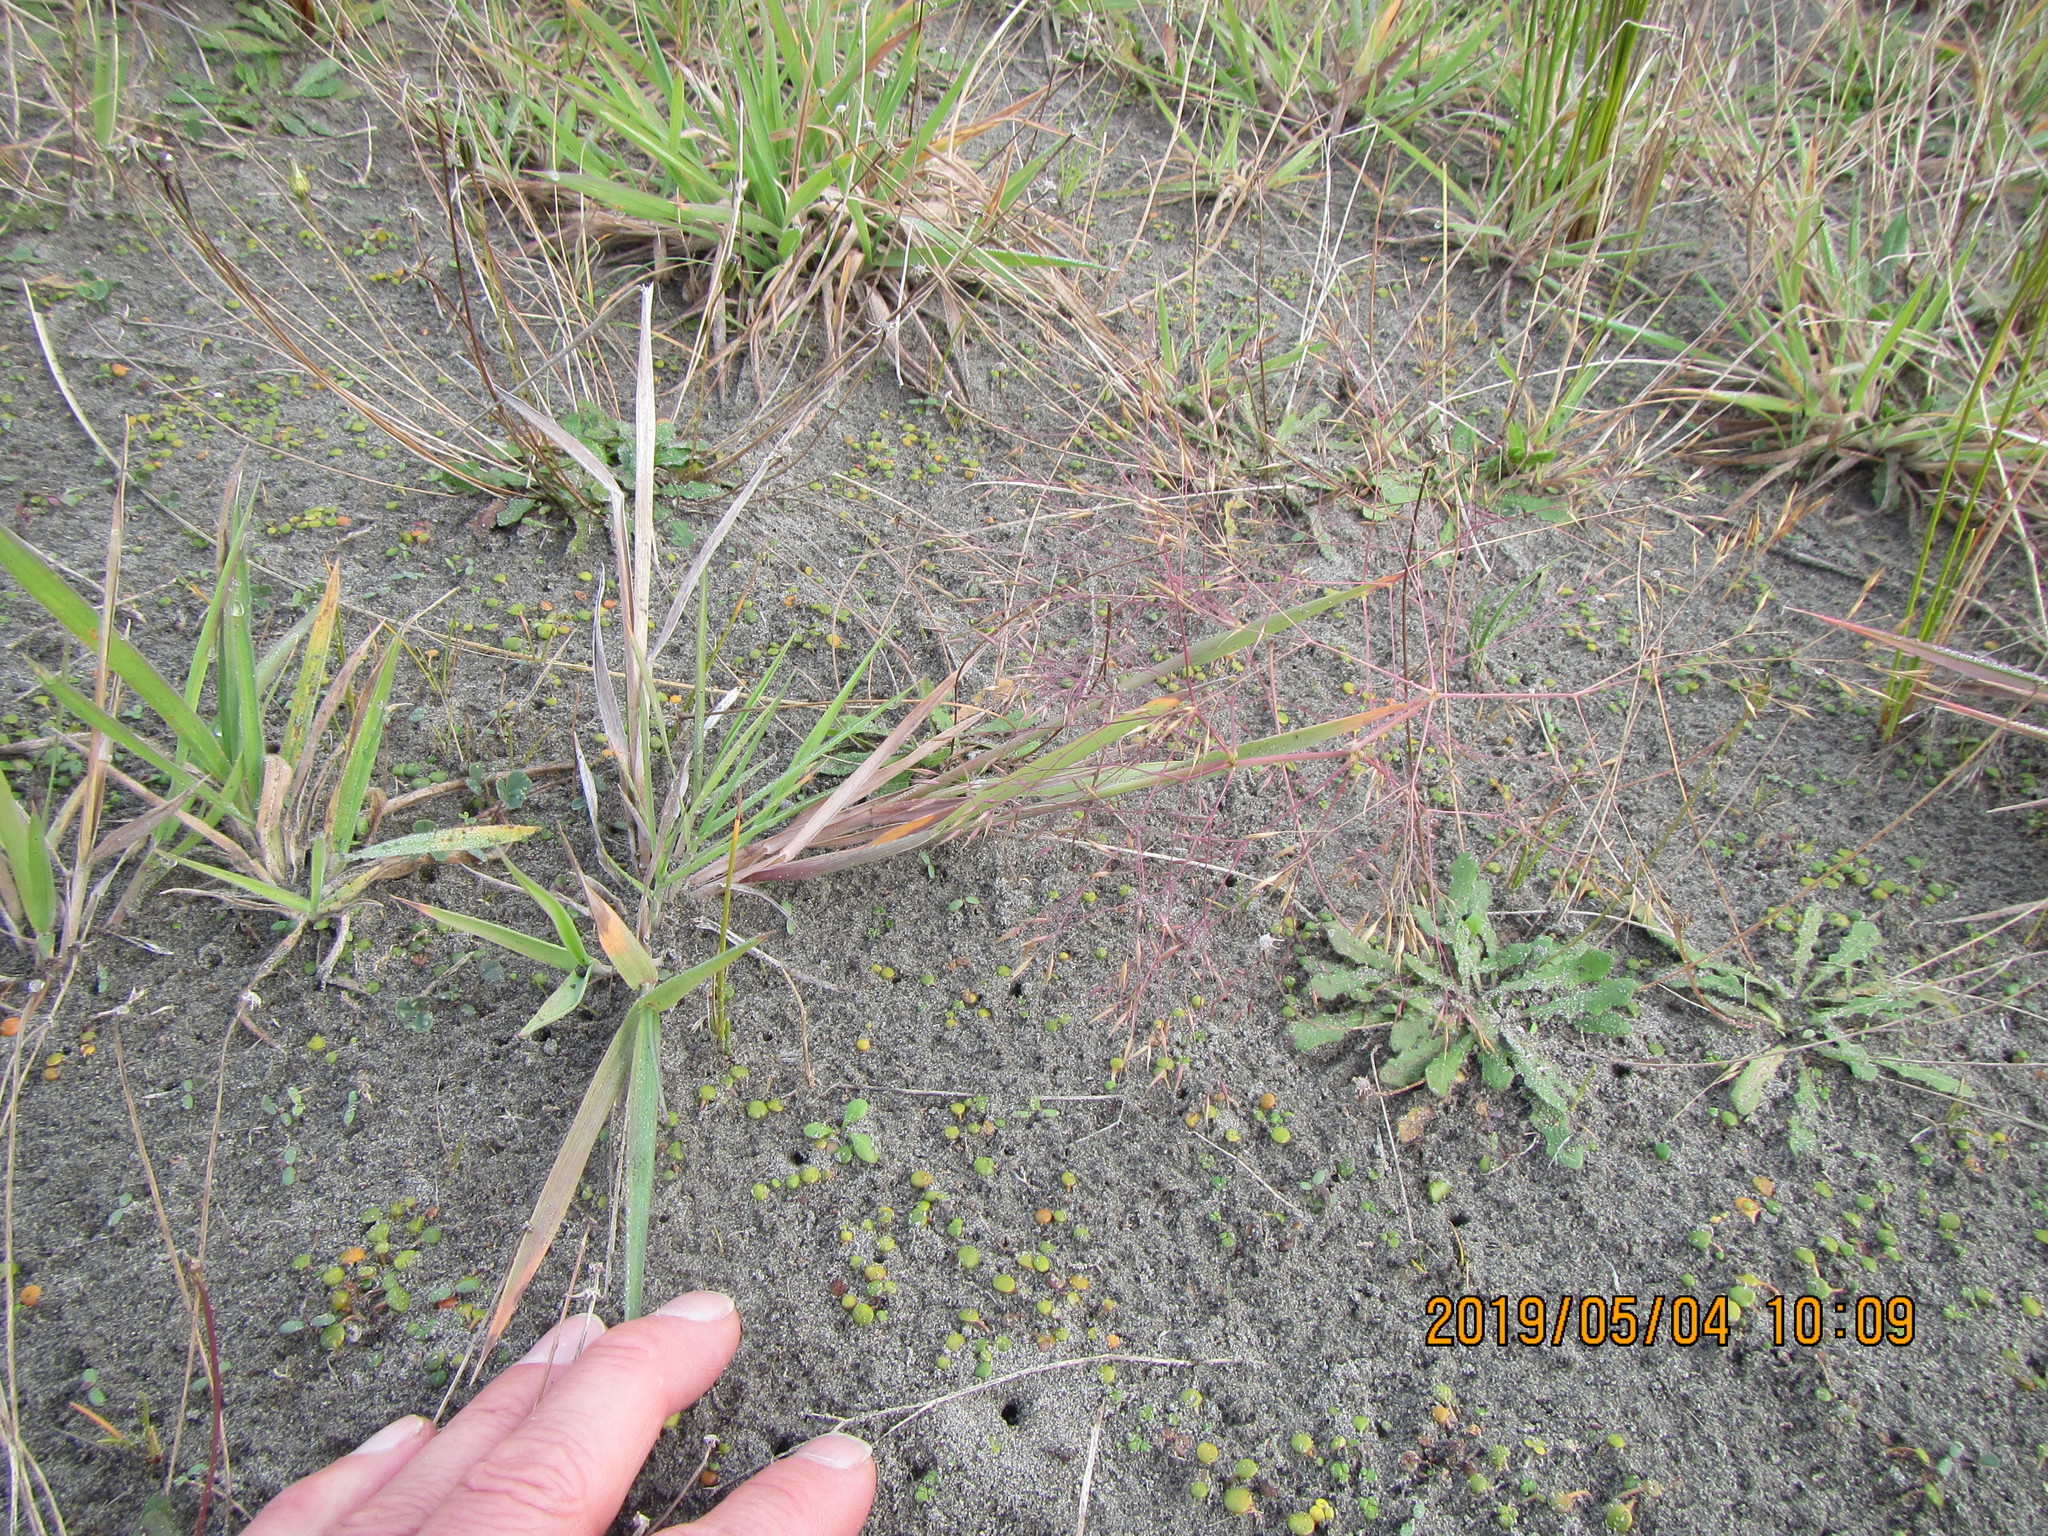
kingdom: Plantae
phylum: Tracheophyta
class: Liliopsida
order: Poales
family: Poaceae
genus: Lachnagrostis
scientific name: Lachnagrostis billardierei
